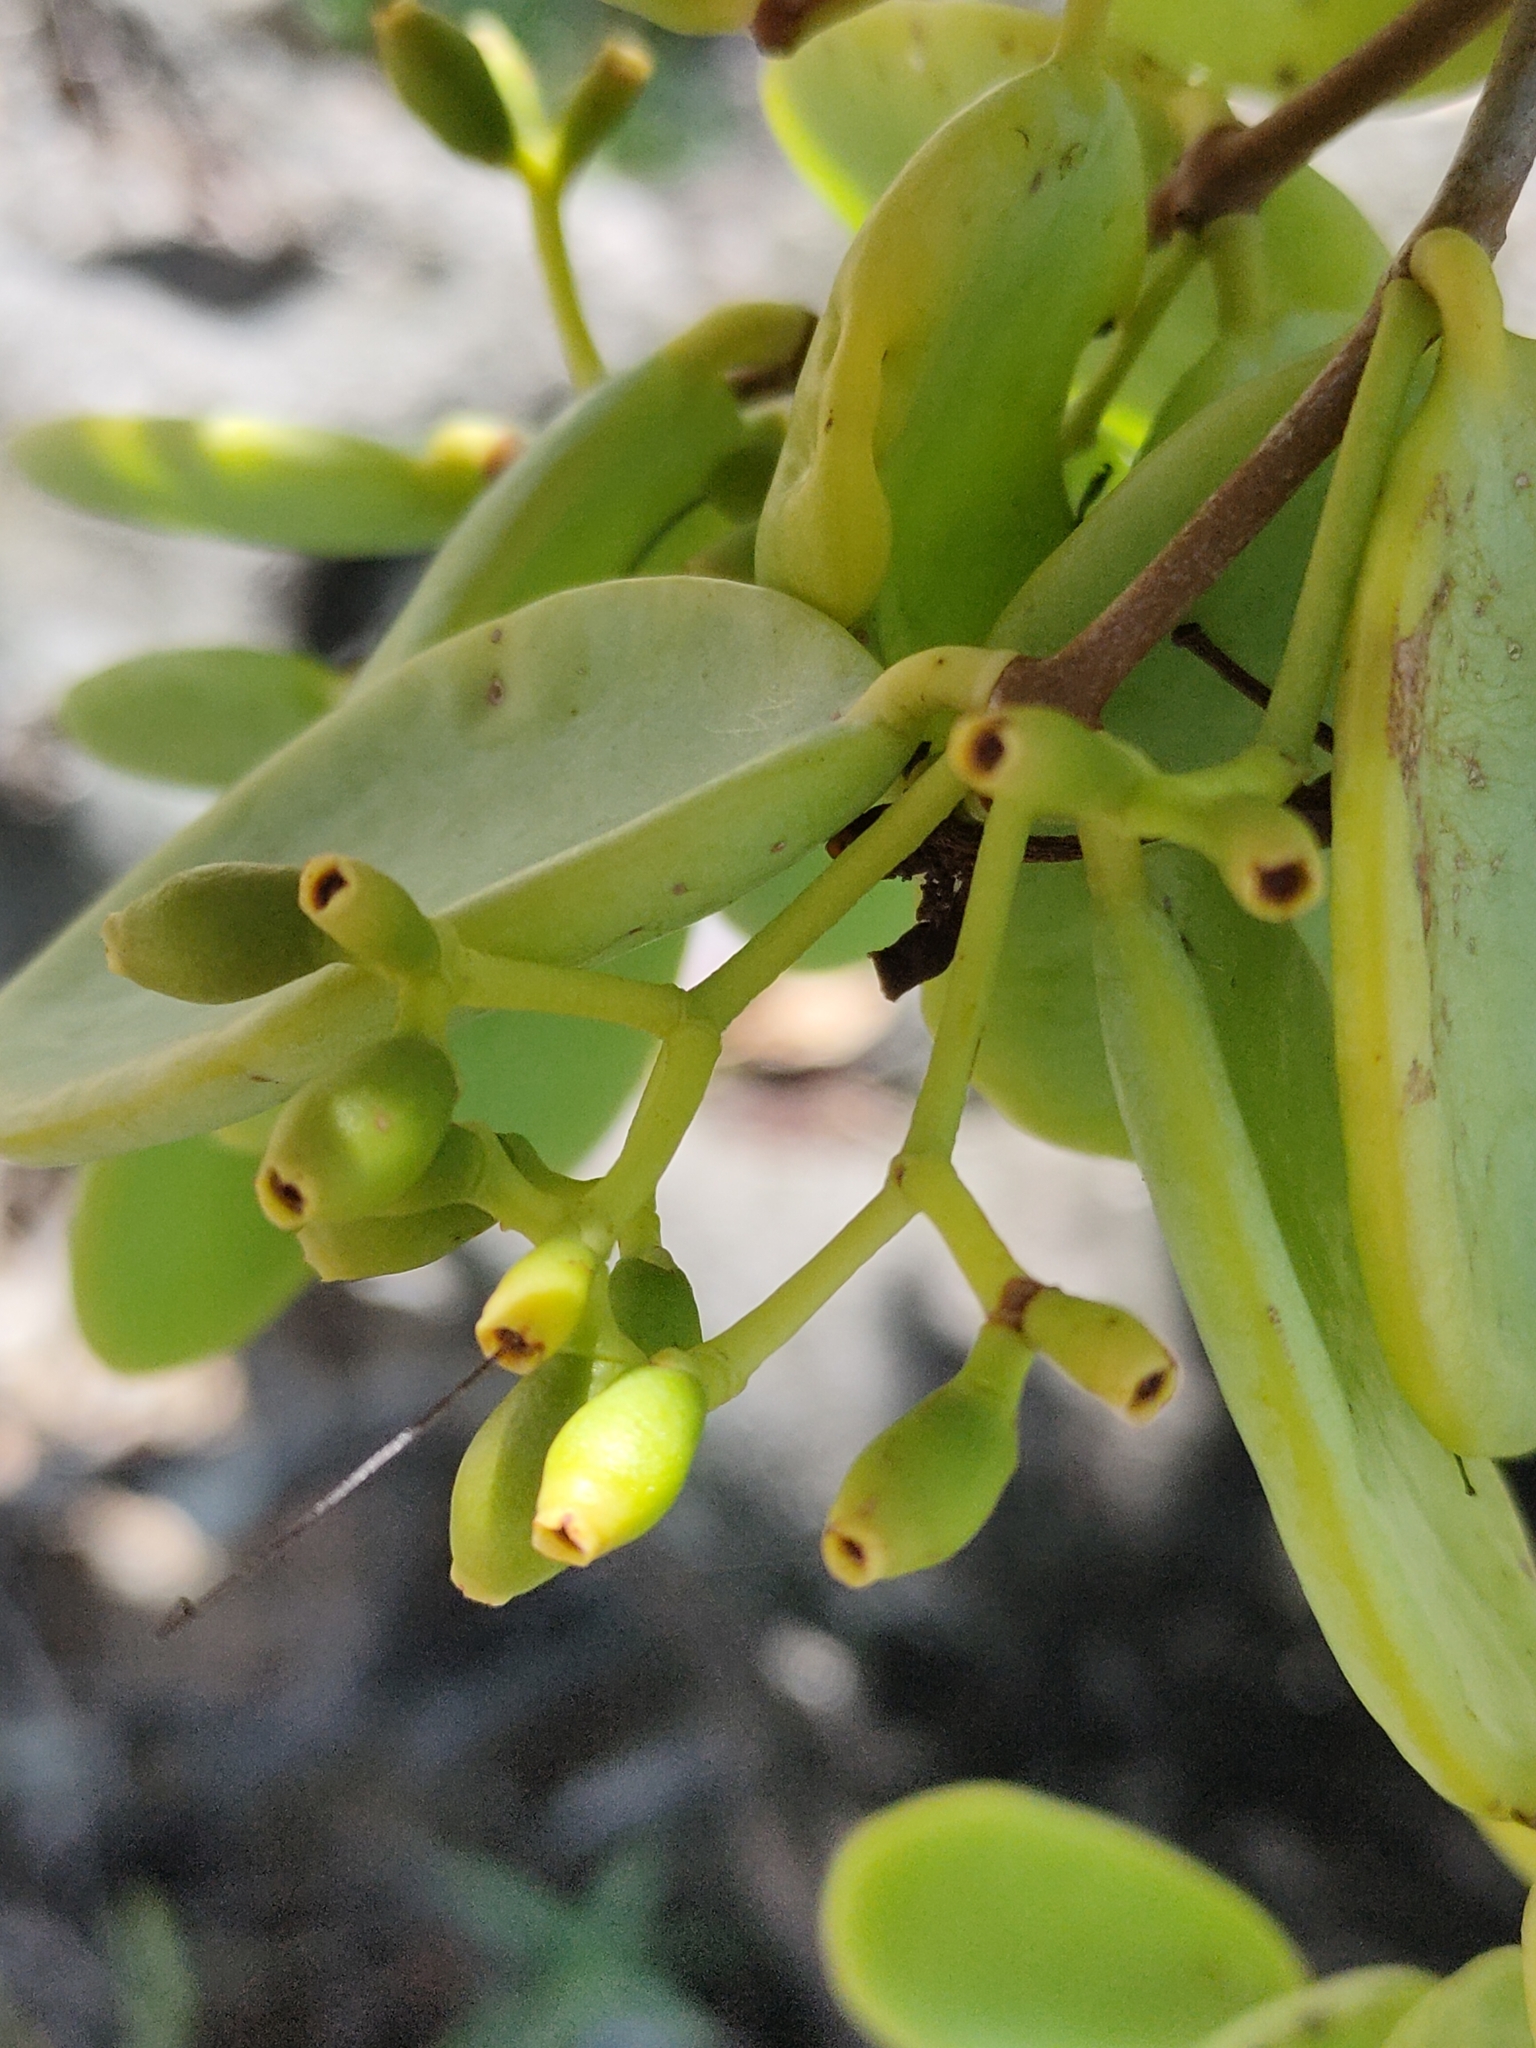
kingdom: Plantae
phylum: Tracheophyta
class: Magnoliopsida
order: Santalales
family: Loranthaceae
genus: Amyema
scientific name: Amyema mackayensis
